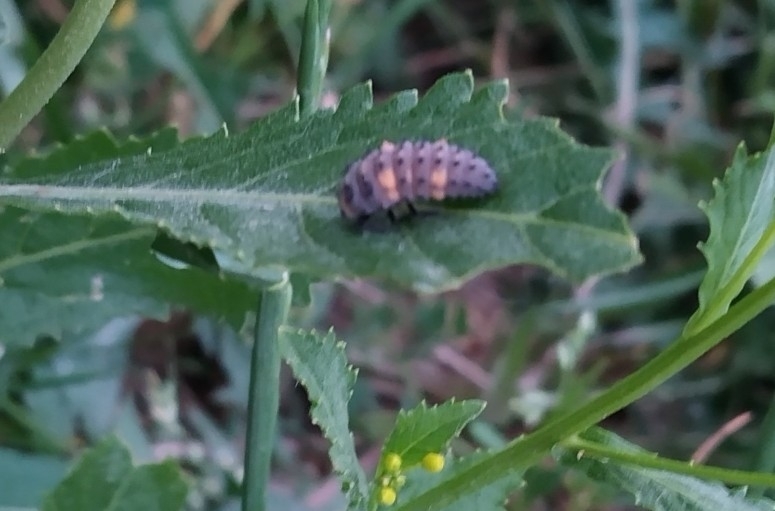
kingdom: Animalia
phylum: Arthropoda
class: Insecta
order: Coleoptera
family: Coccinellidae
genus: Coccinella
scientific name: Coccinella septempunctata
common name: Sevenspotted lady beetle
